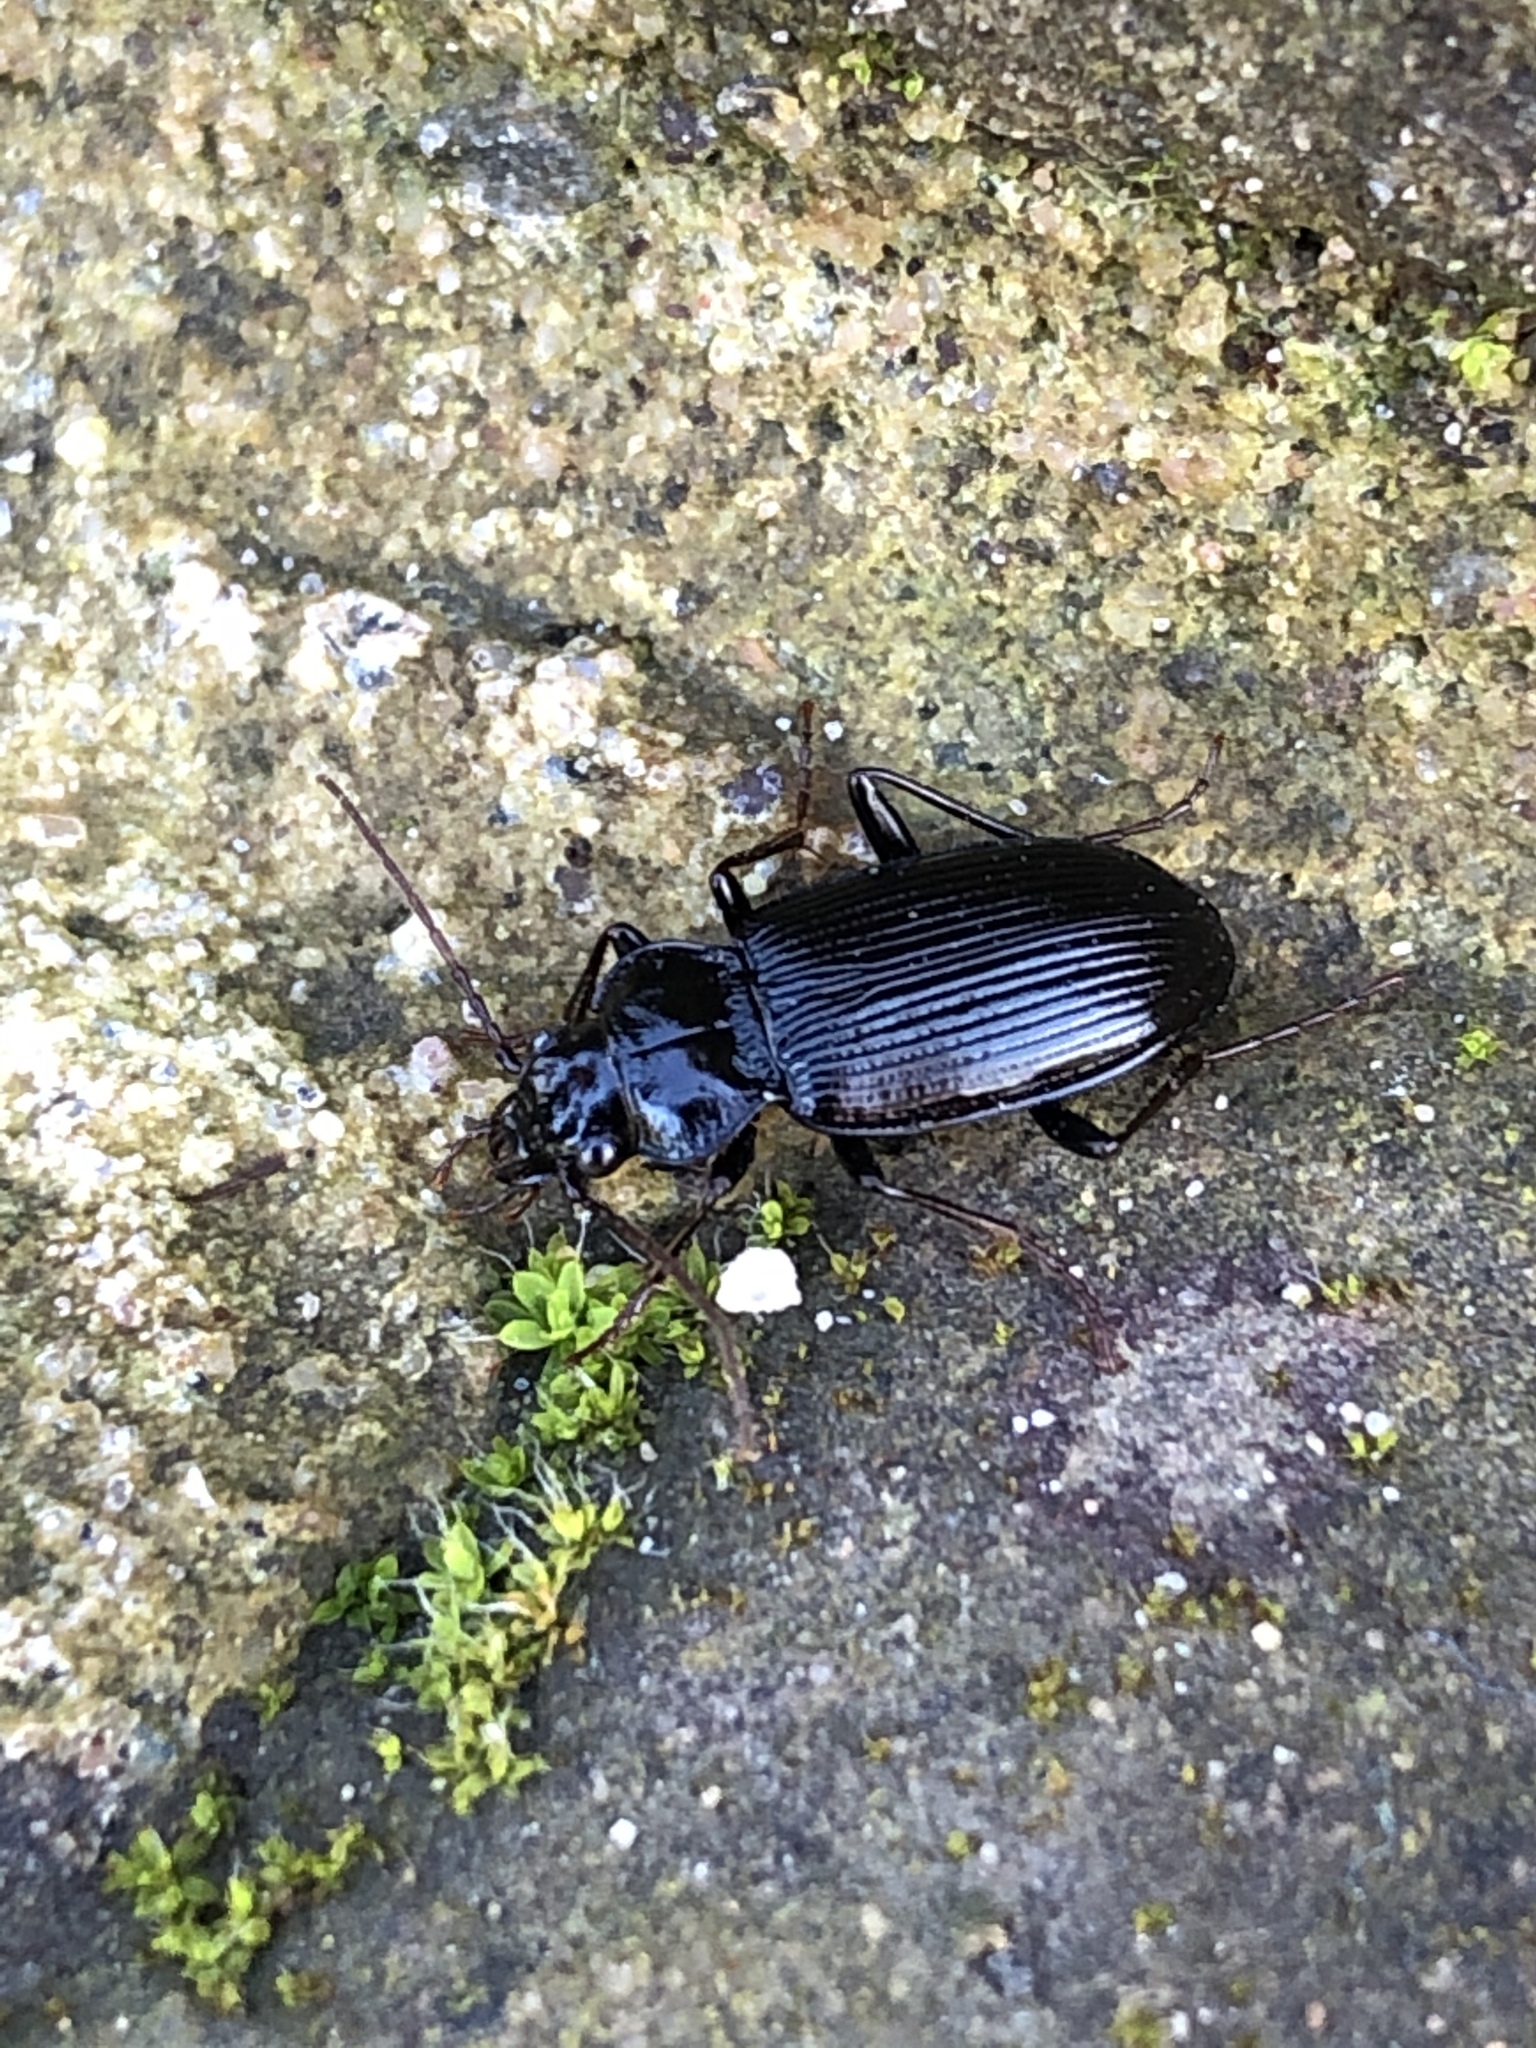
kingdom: Animalia
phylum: Arthropoda
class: Insecta
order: Coleoptera
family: Carabidae
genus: Nebria
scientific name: Nebria brevicollis
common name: Short-necked gazelle beetle
